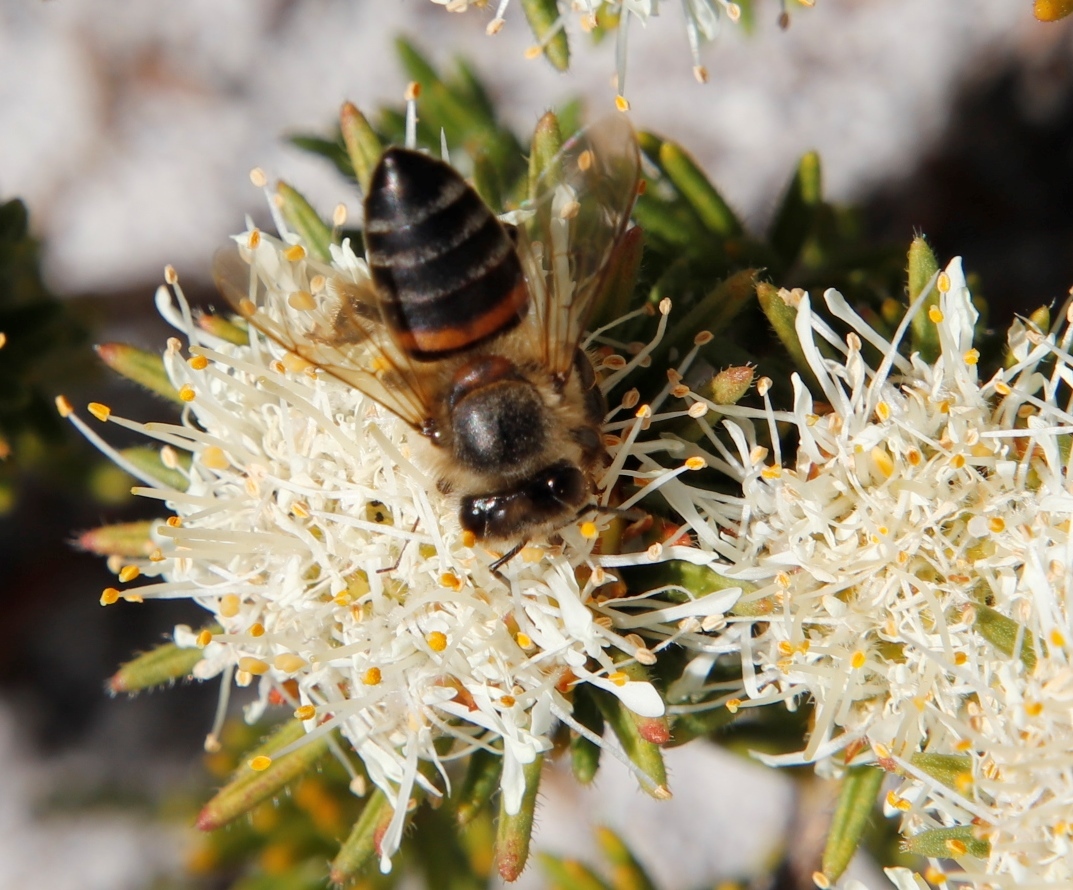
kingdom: Animalia
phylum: Arthropoda
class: Insecta
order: Hymenoptera
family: Apidae
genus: Apis
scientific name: Apis mellifera
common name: Honey bee
